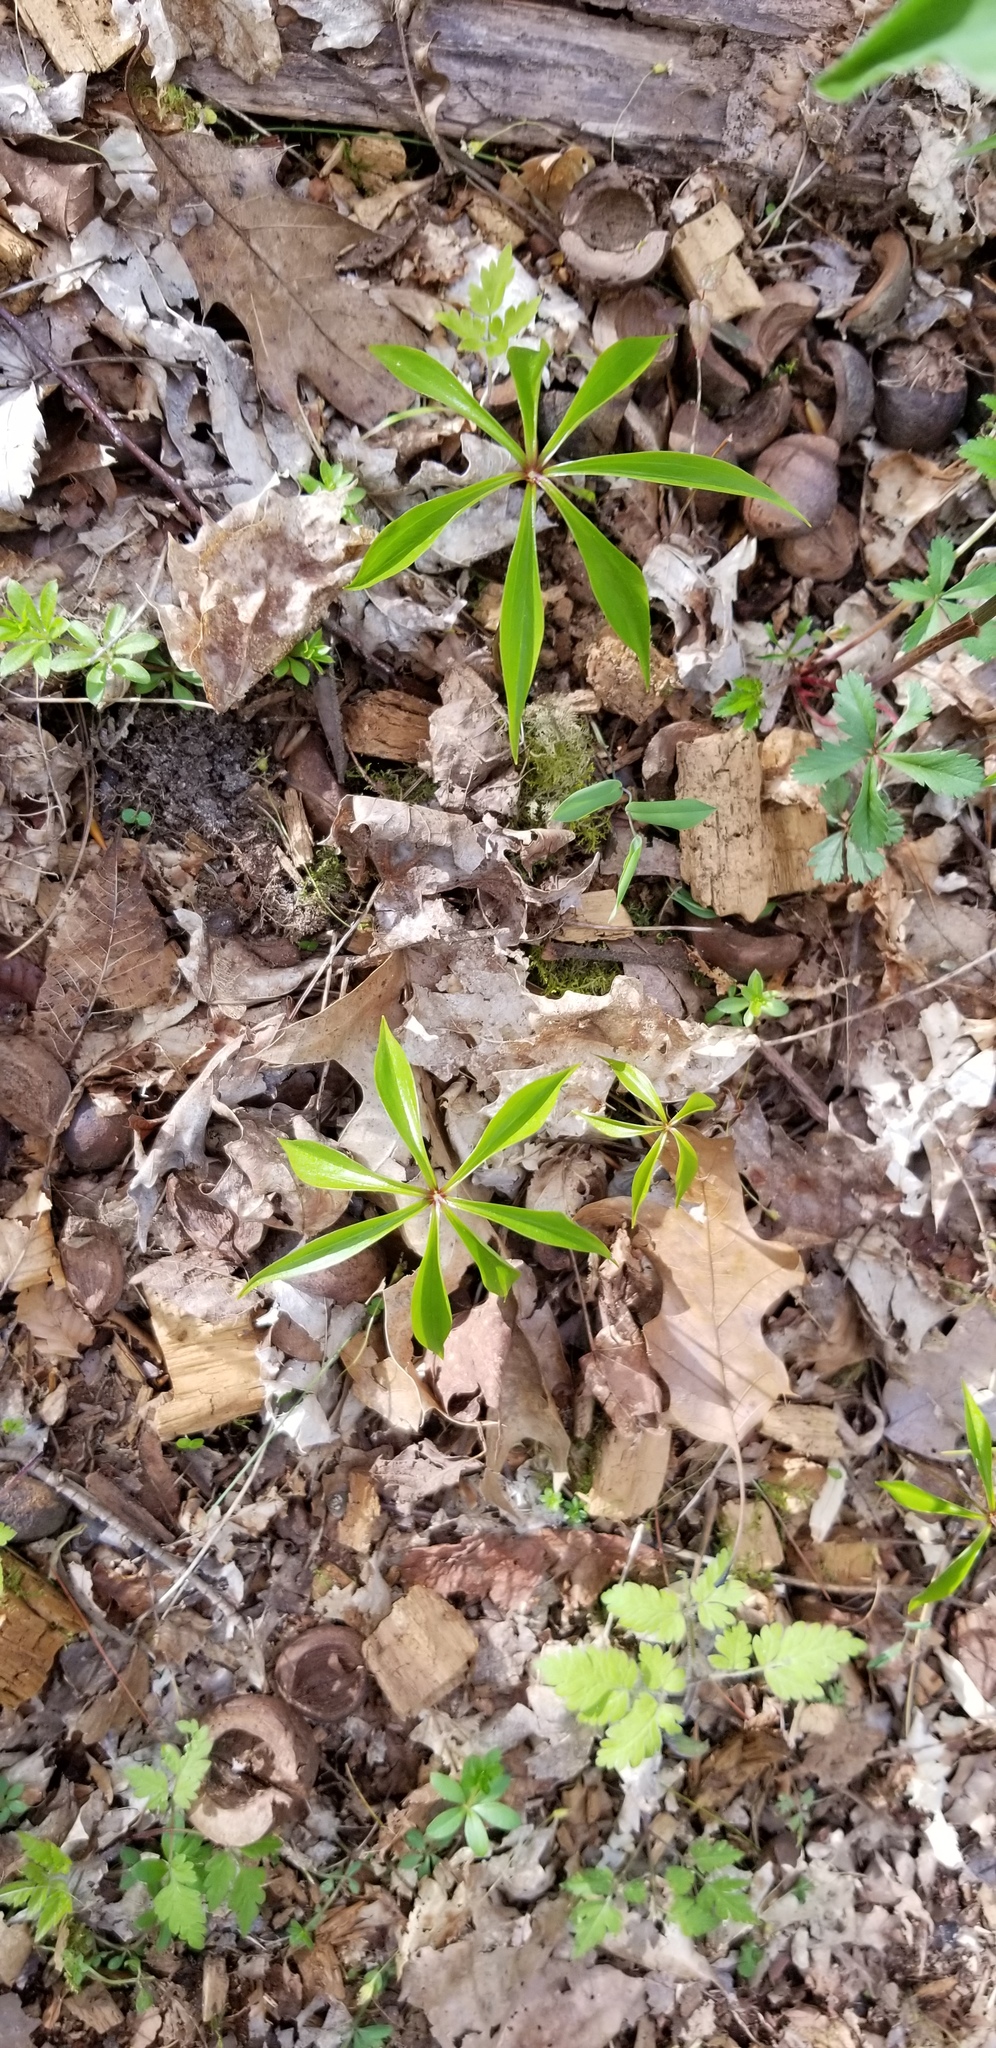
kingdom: Plantae
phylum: Tracheophyta
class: Liliopsida
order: Liliales
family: Liliaceae
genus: Medeola
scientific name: Medeola virginiana
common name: Indian cucumber-root
